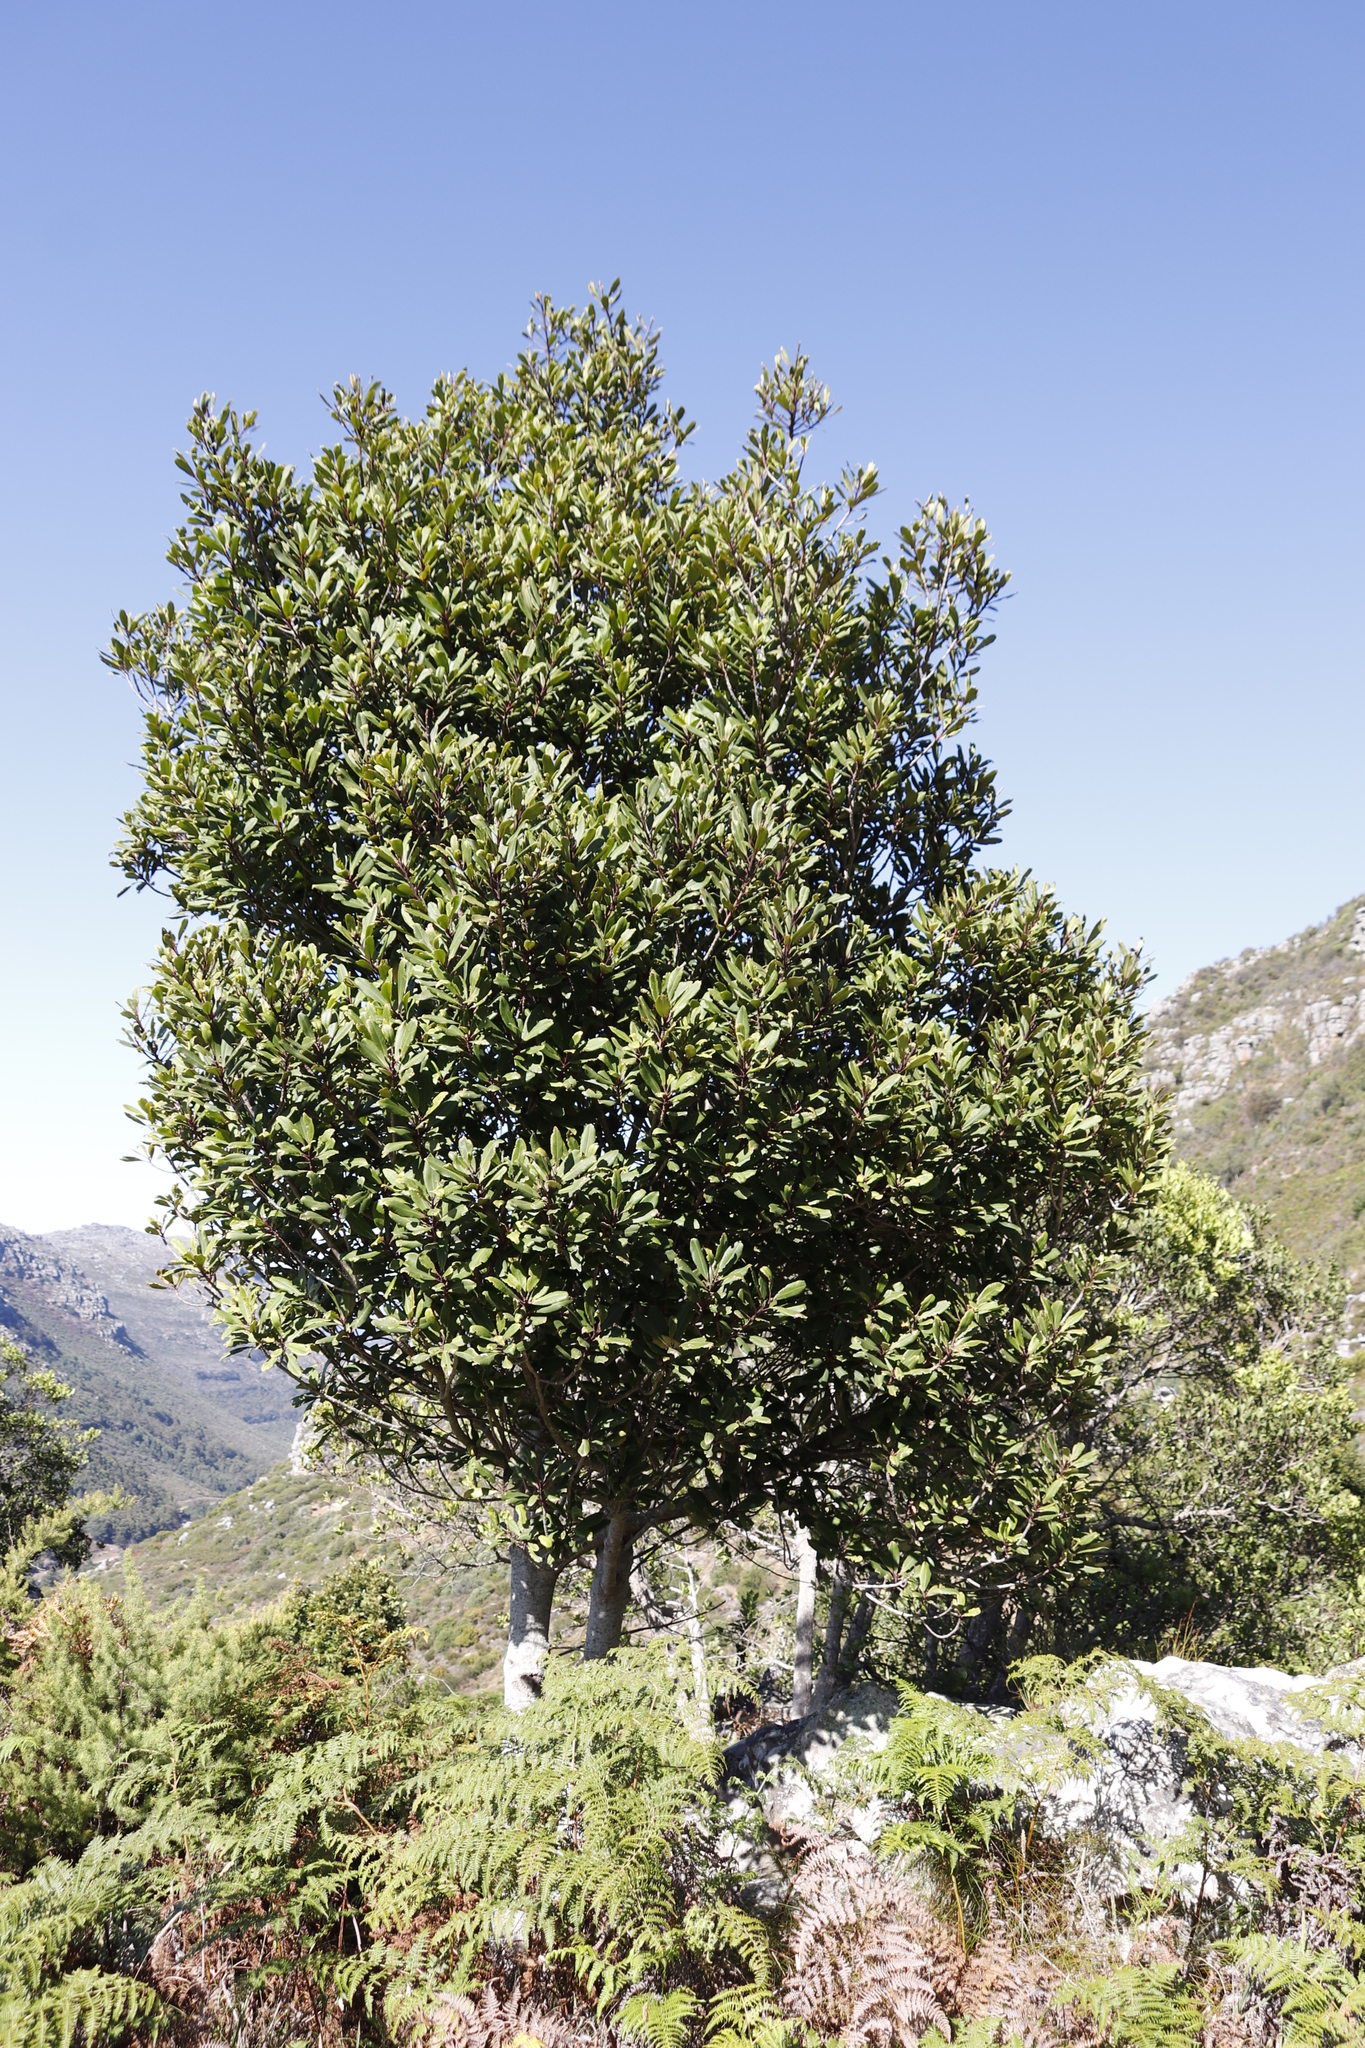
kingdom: Plantae
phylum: Tracheophyta
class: Magnoliopsida
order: Ericales
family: Primulaceae
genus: Myrsine
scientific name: Myrsine melanophloeos
